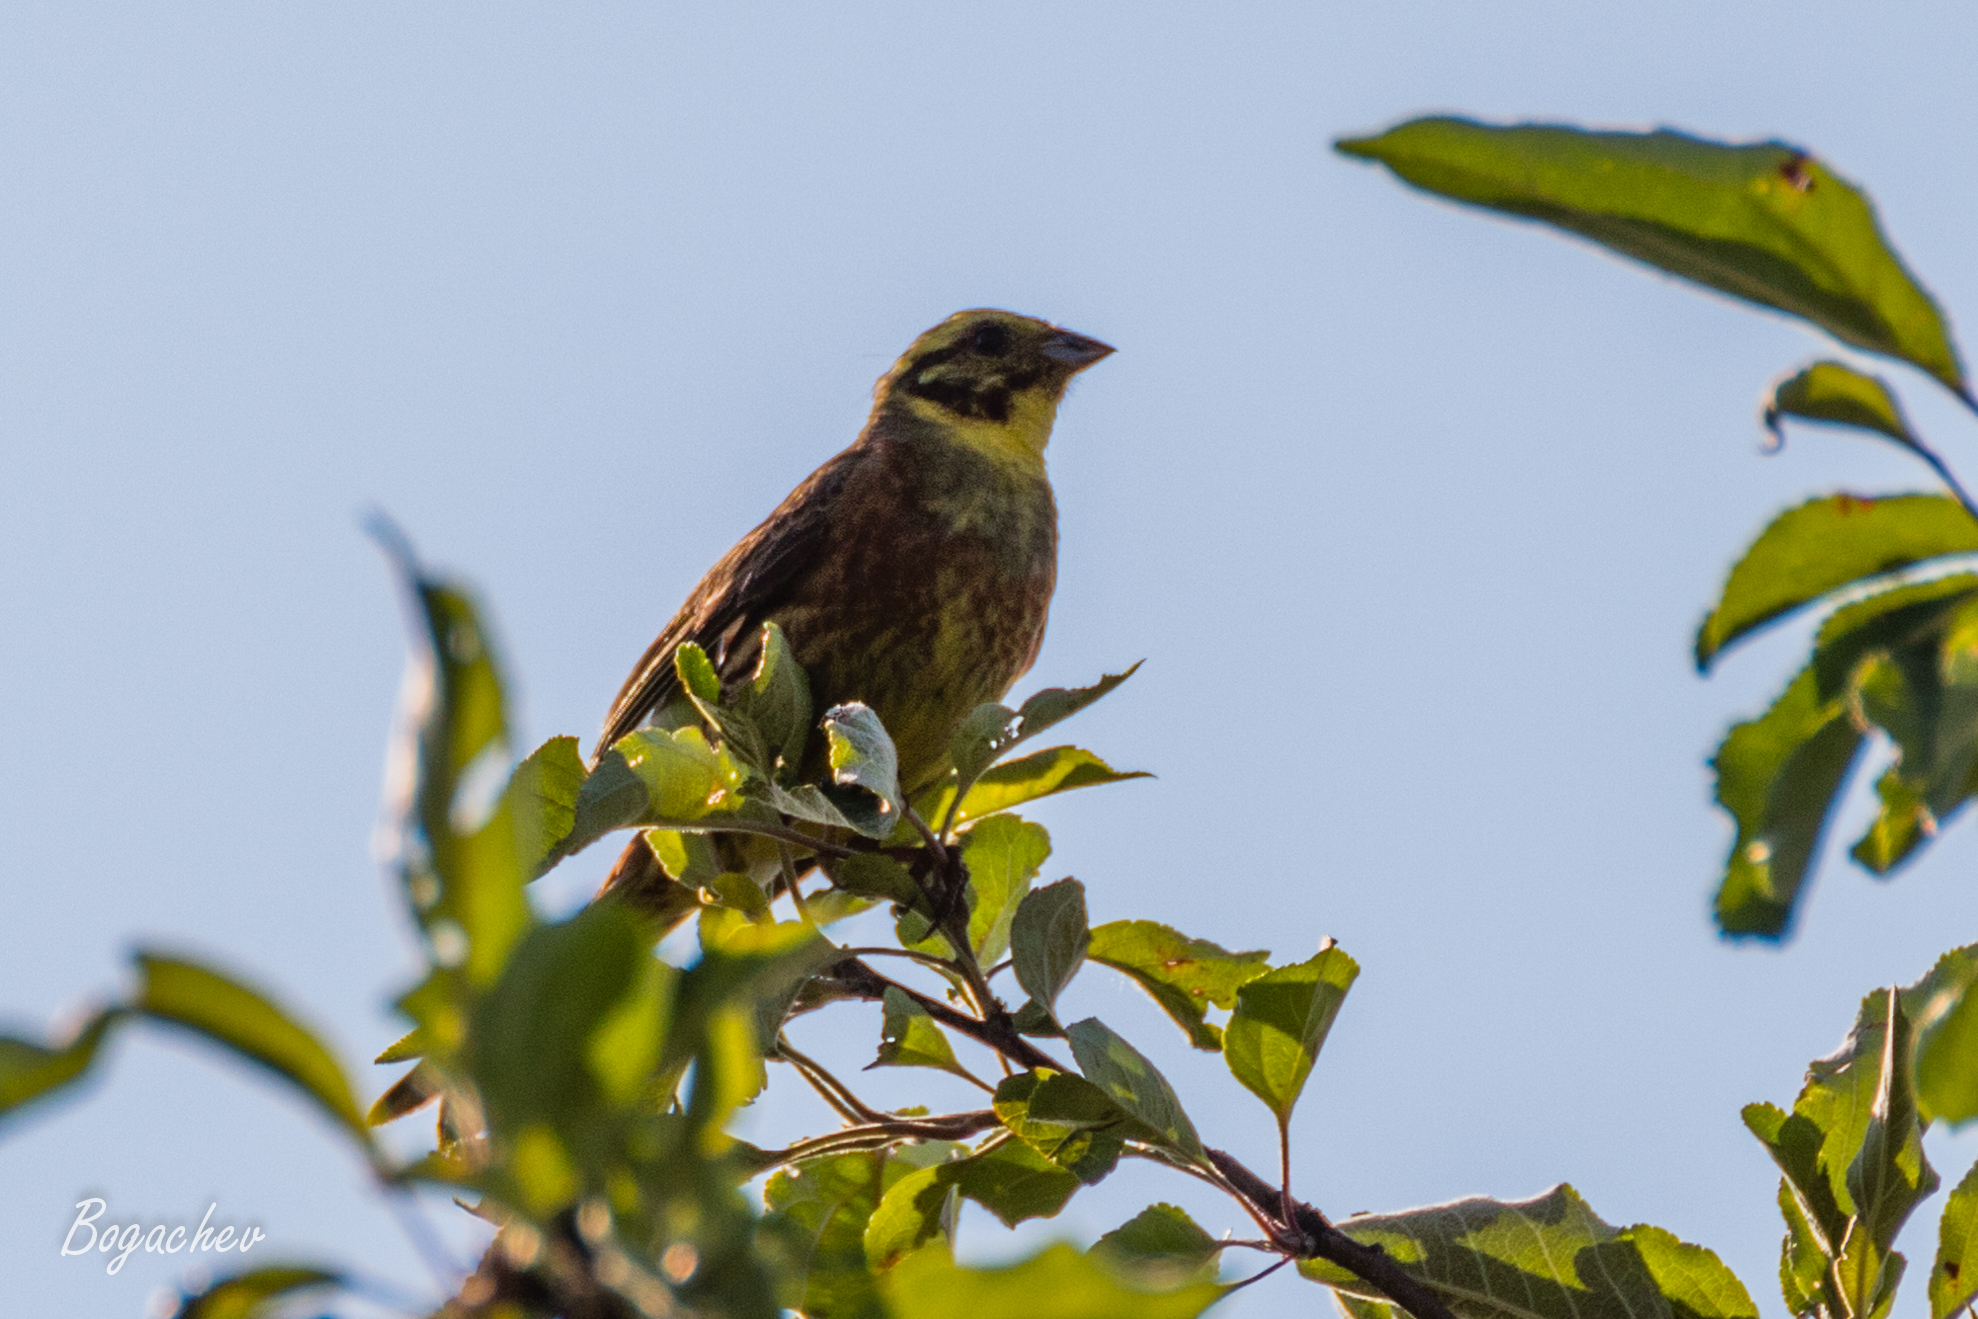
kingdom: Animalia
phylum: Chordata
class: Aves
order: Passeriformes
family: Emberizidae
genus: Emberiza
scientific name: Emberiza citrinella
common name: Yellowhammer
